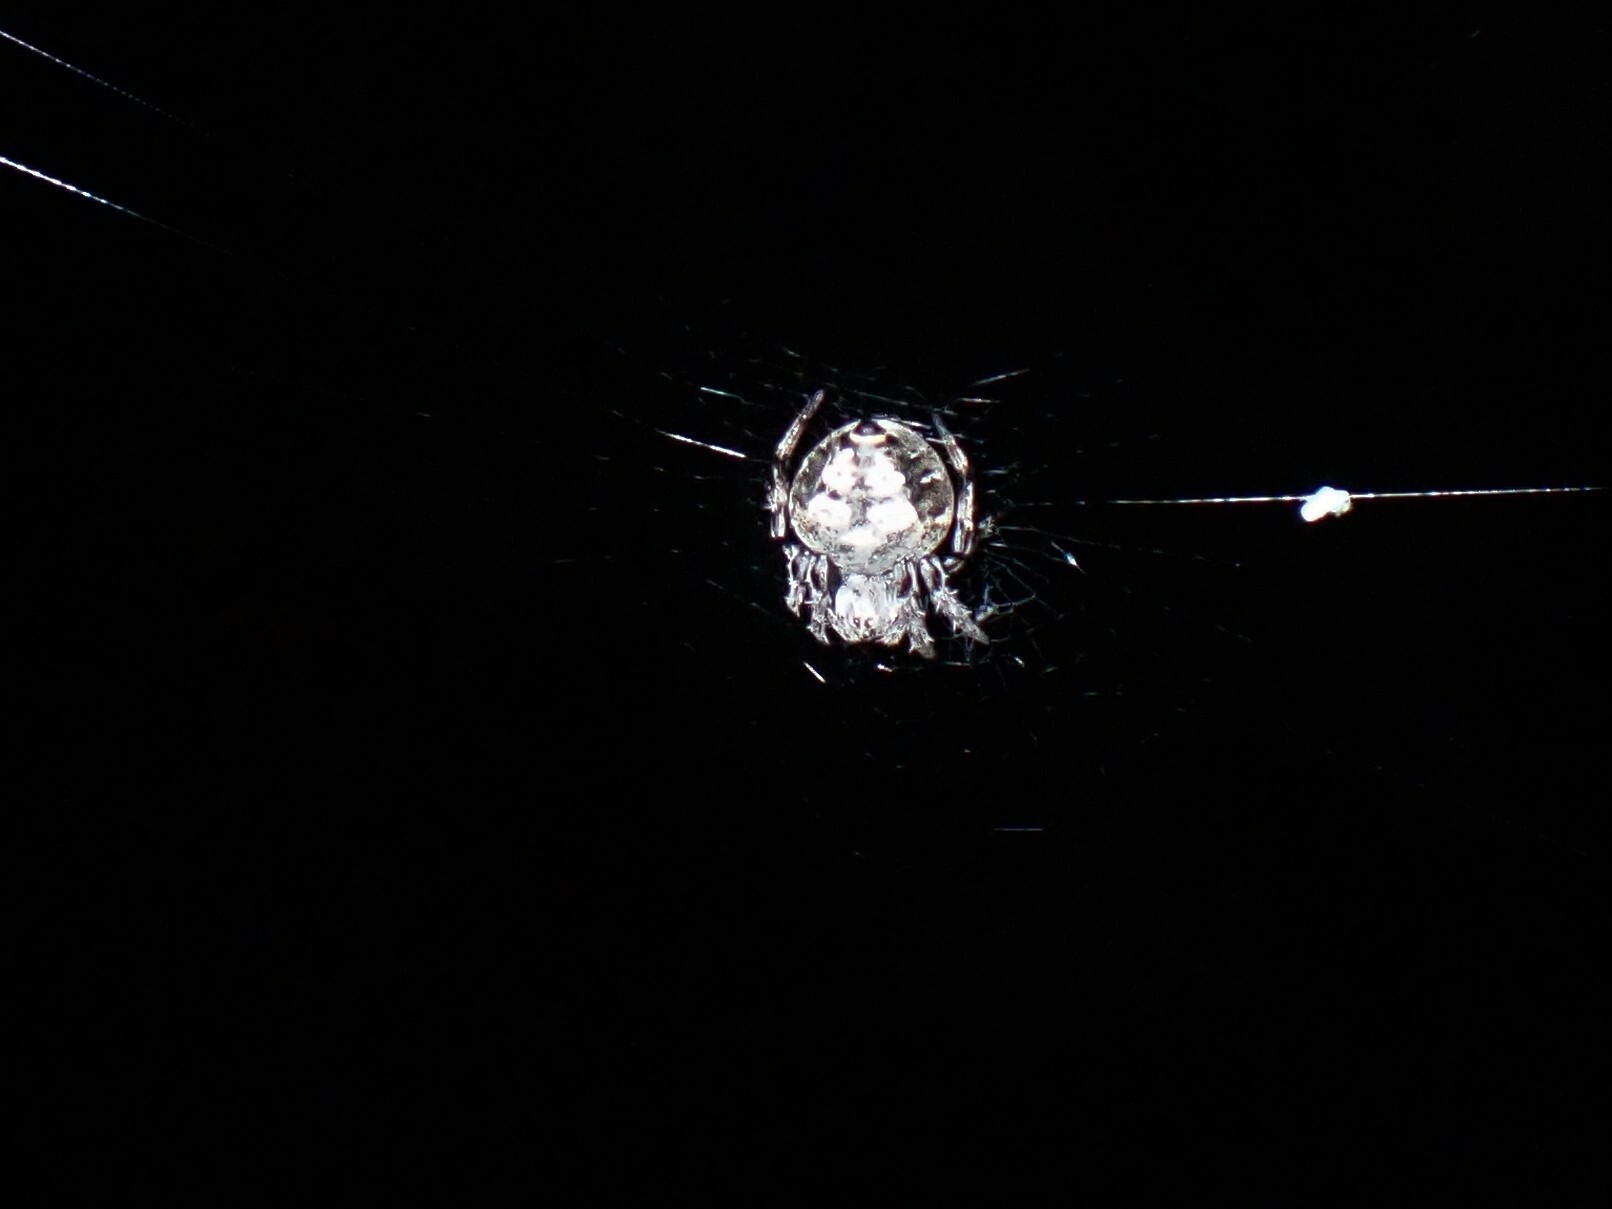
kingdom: Animalia
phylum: Arthropoda
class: Arachnida
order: Araneae
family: Araneidae
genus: Eriovixia
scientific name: Eriovixia excelsa
